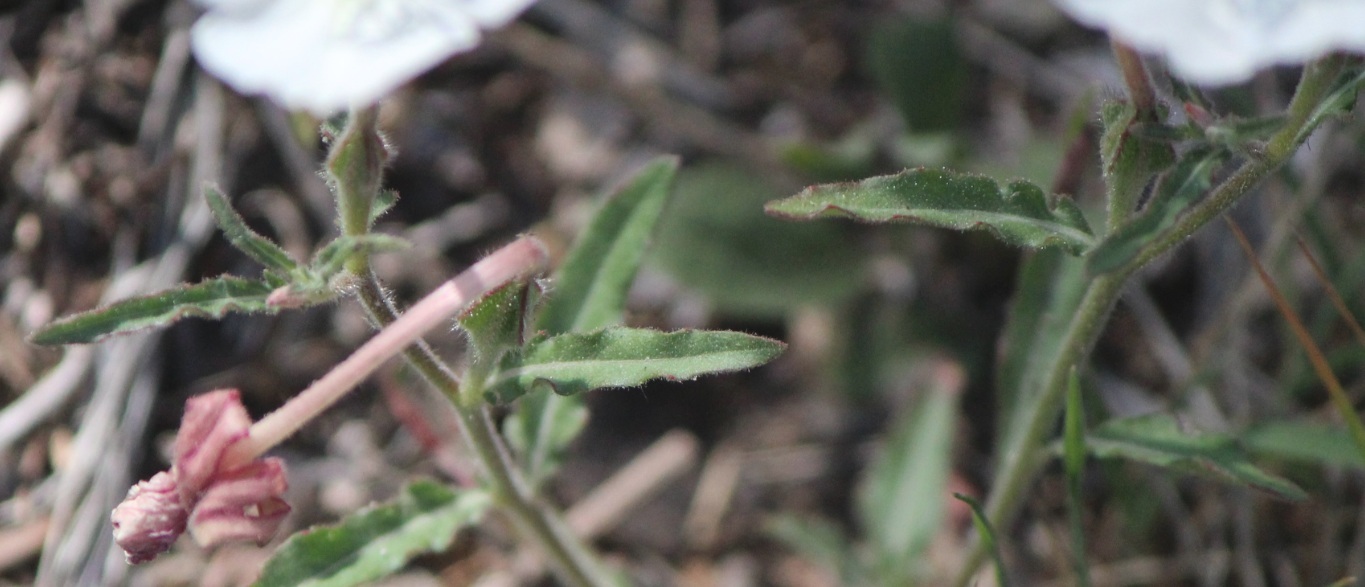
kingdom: Plantae
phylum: Tracheophyta
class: Magnoliopsida
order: Myrtales
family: Onagraceae
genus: Oenothera
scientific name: Oenothera tetraptera
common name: Four-wing evening-primrose
